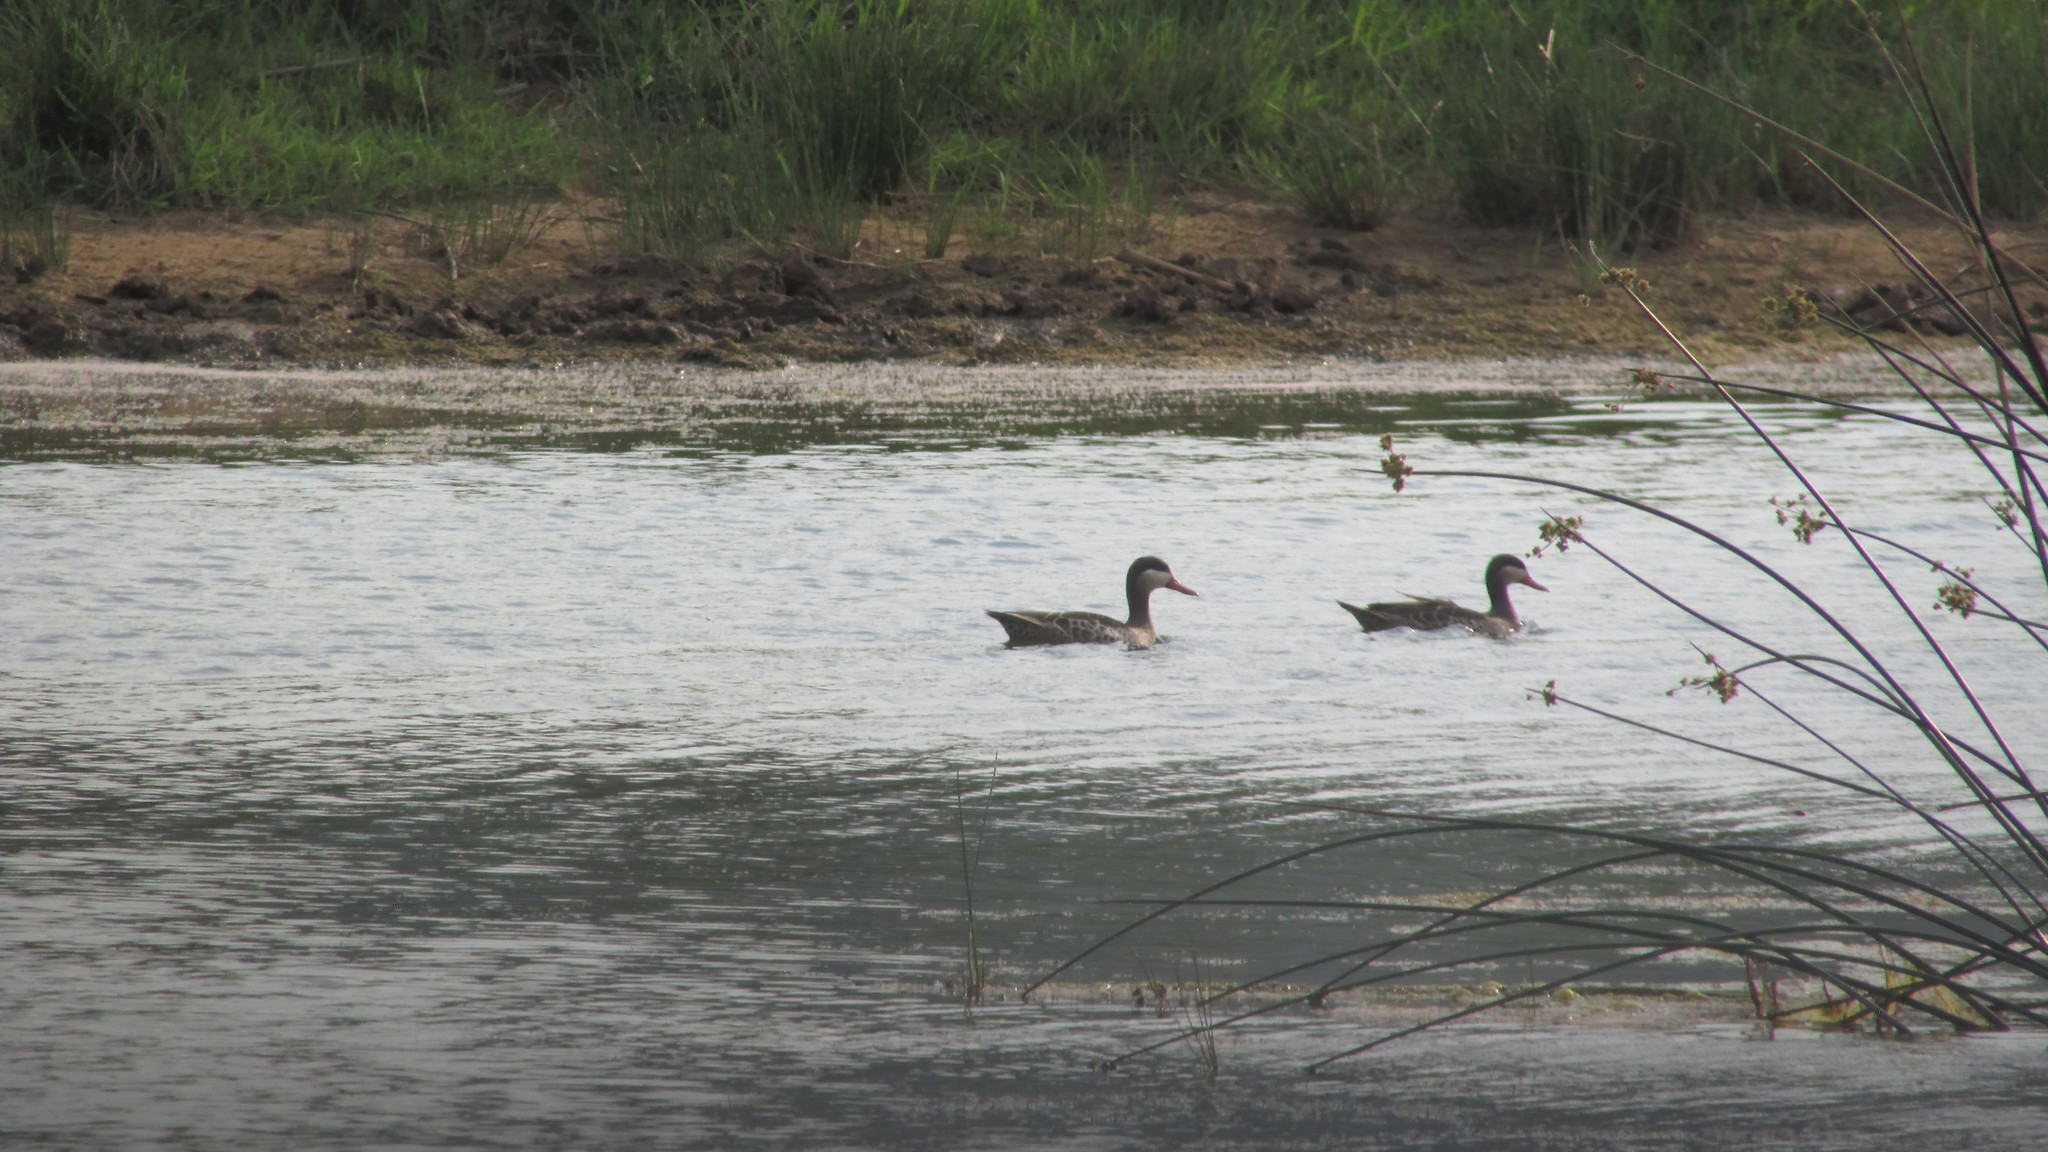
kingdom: Animalia
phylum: Chordata
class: Aves
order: Anseriformes
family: Anatidae
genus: Anas
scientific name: Anas erythrorhyncha
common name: Red-billed teal
